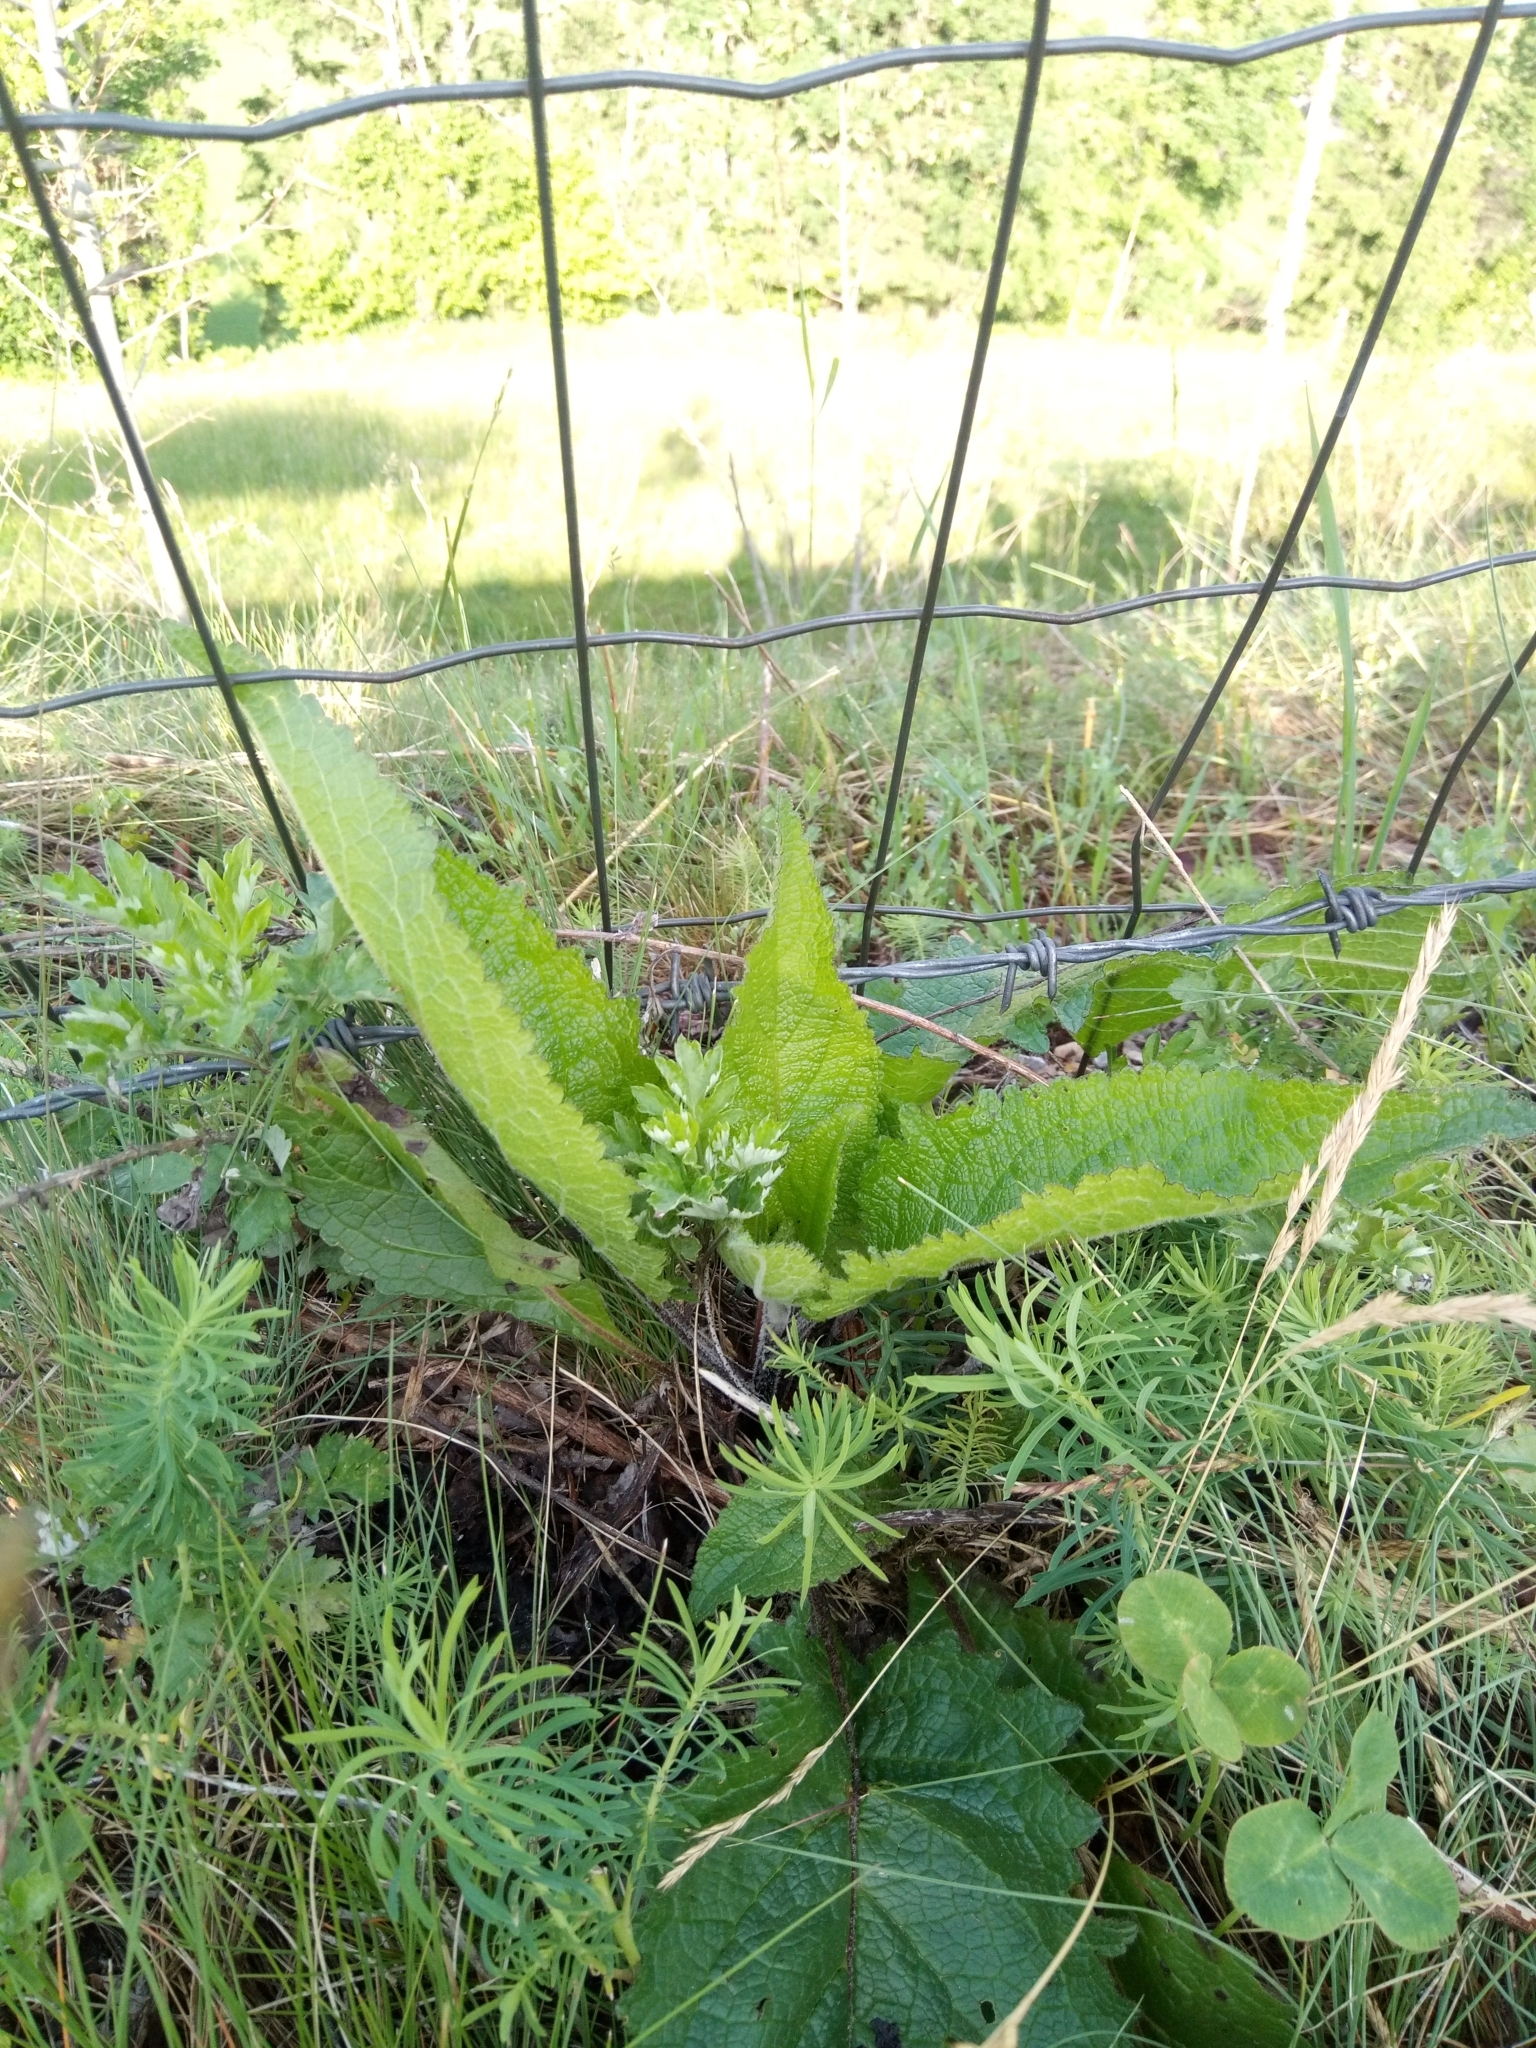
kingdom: Plantae
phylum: Tracheophyta
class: Magnoliopsida
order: Lamiales
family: Scrophulariaceae
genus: Verbascum
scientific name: Verbascum chaixii
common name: Nettle-leaved mullein
